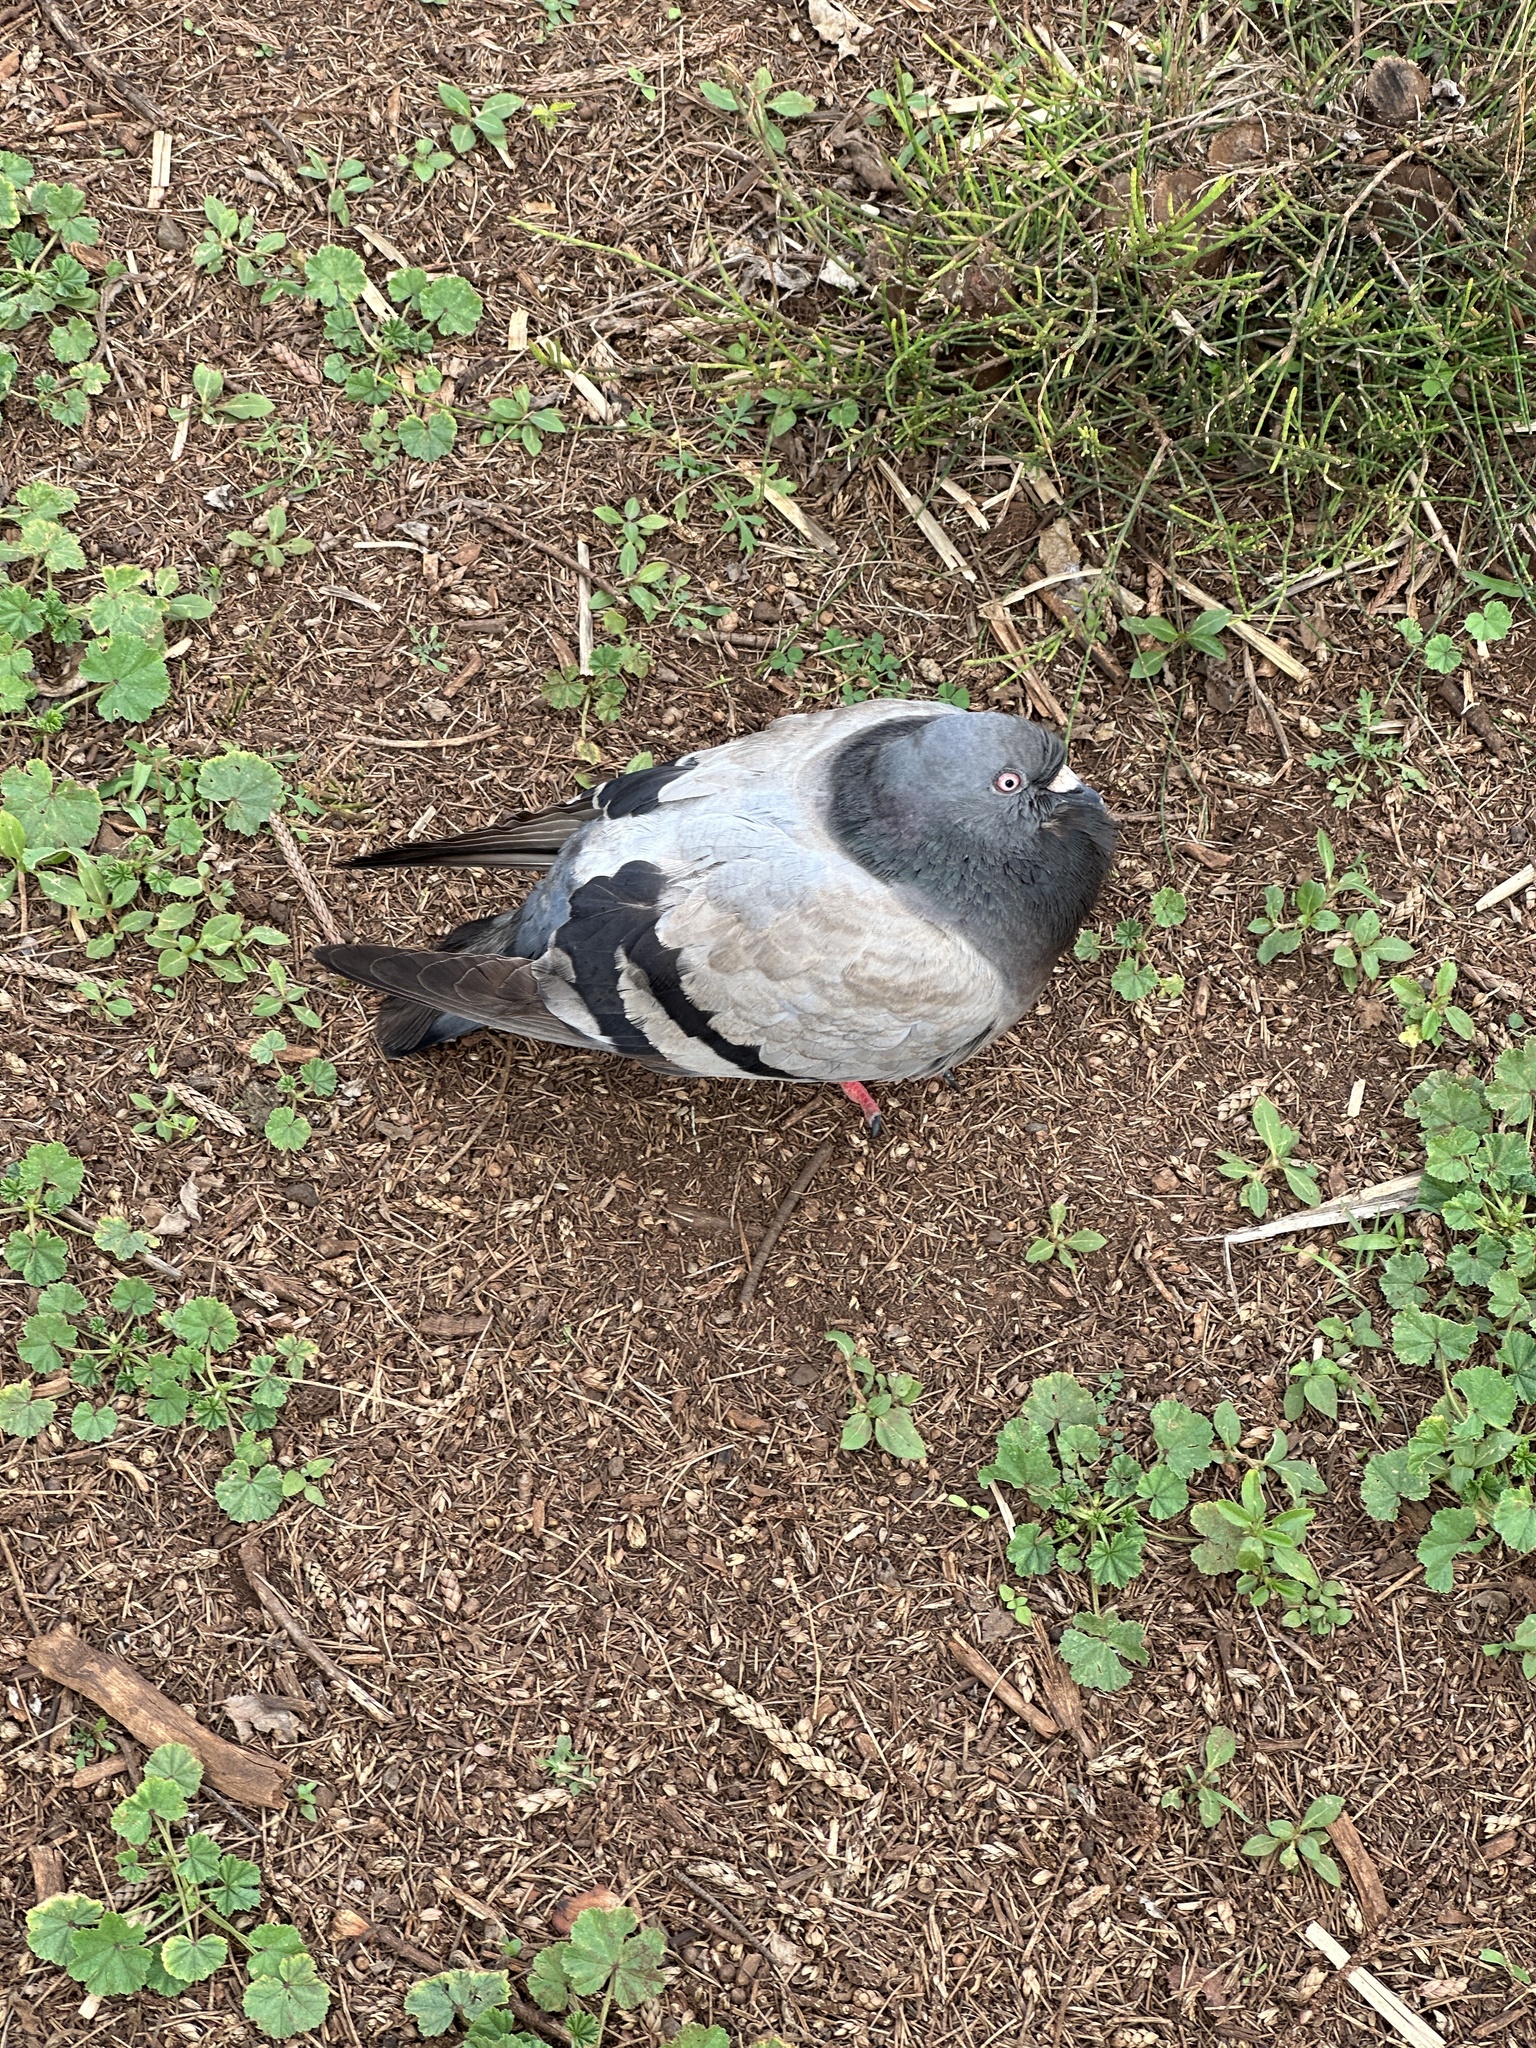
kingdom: Animalia
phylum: Chordata
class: Aves
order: Columbiformes
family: Columbidae
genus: Columba
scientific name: Columba livia
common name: Rock pigeon
